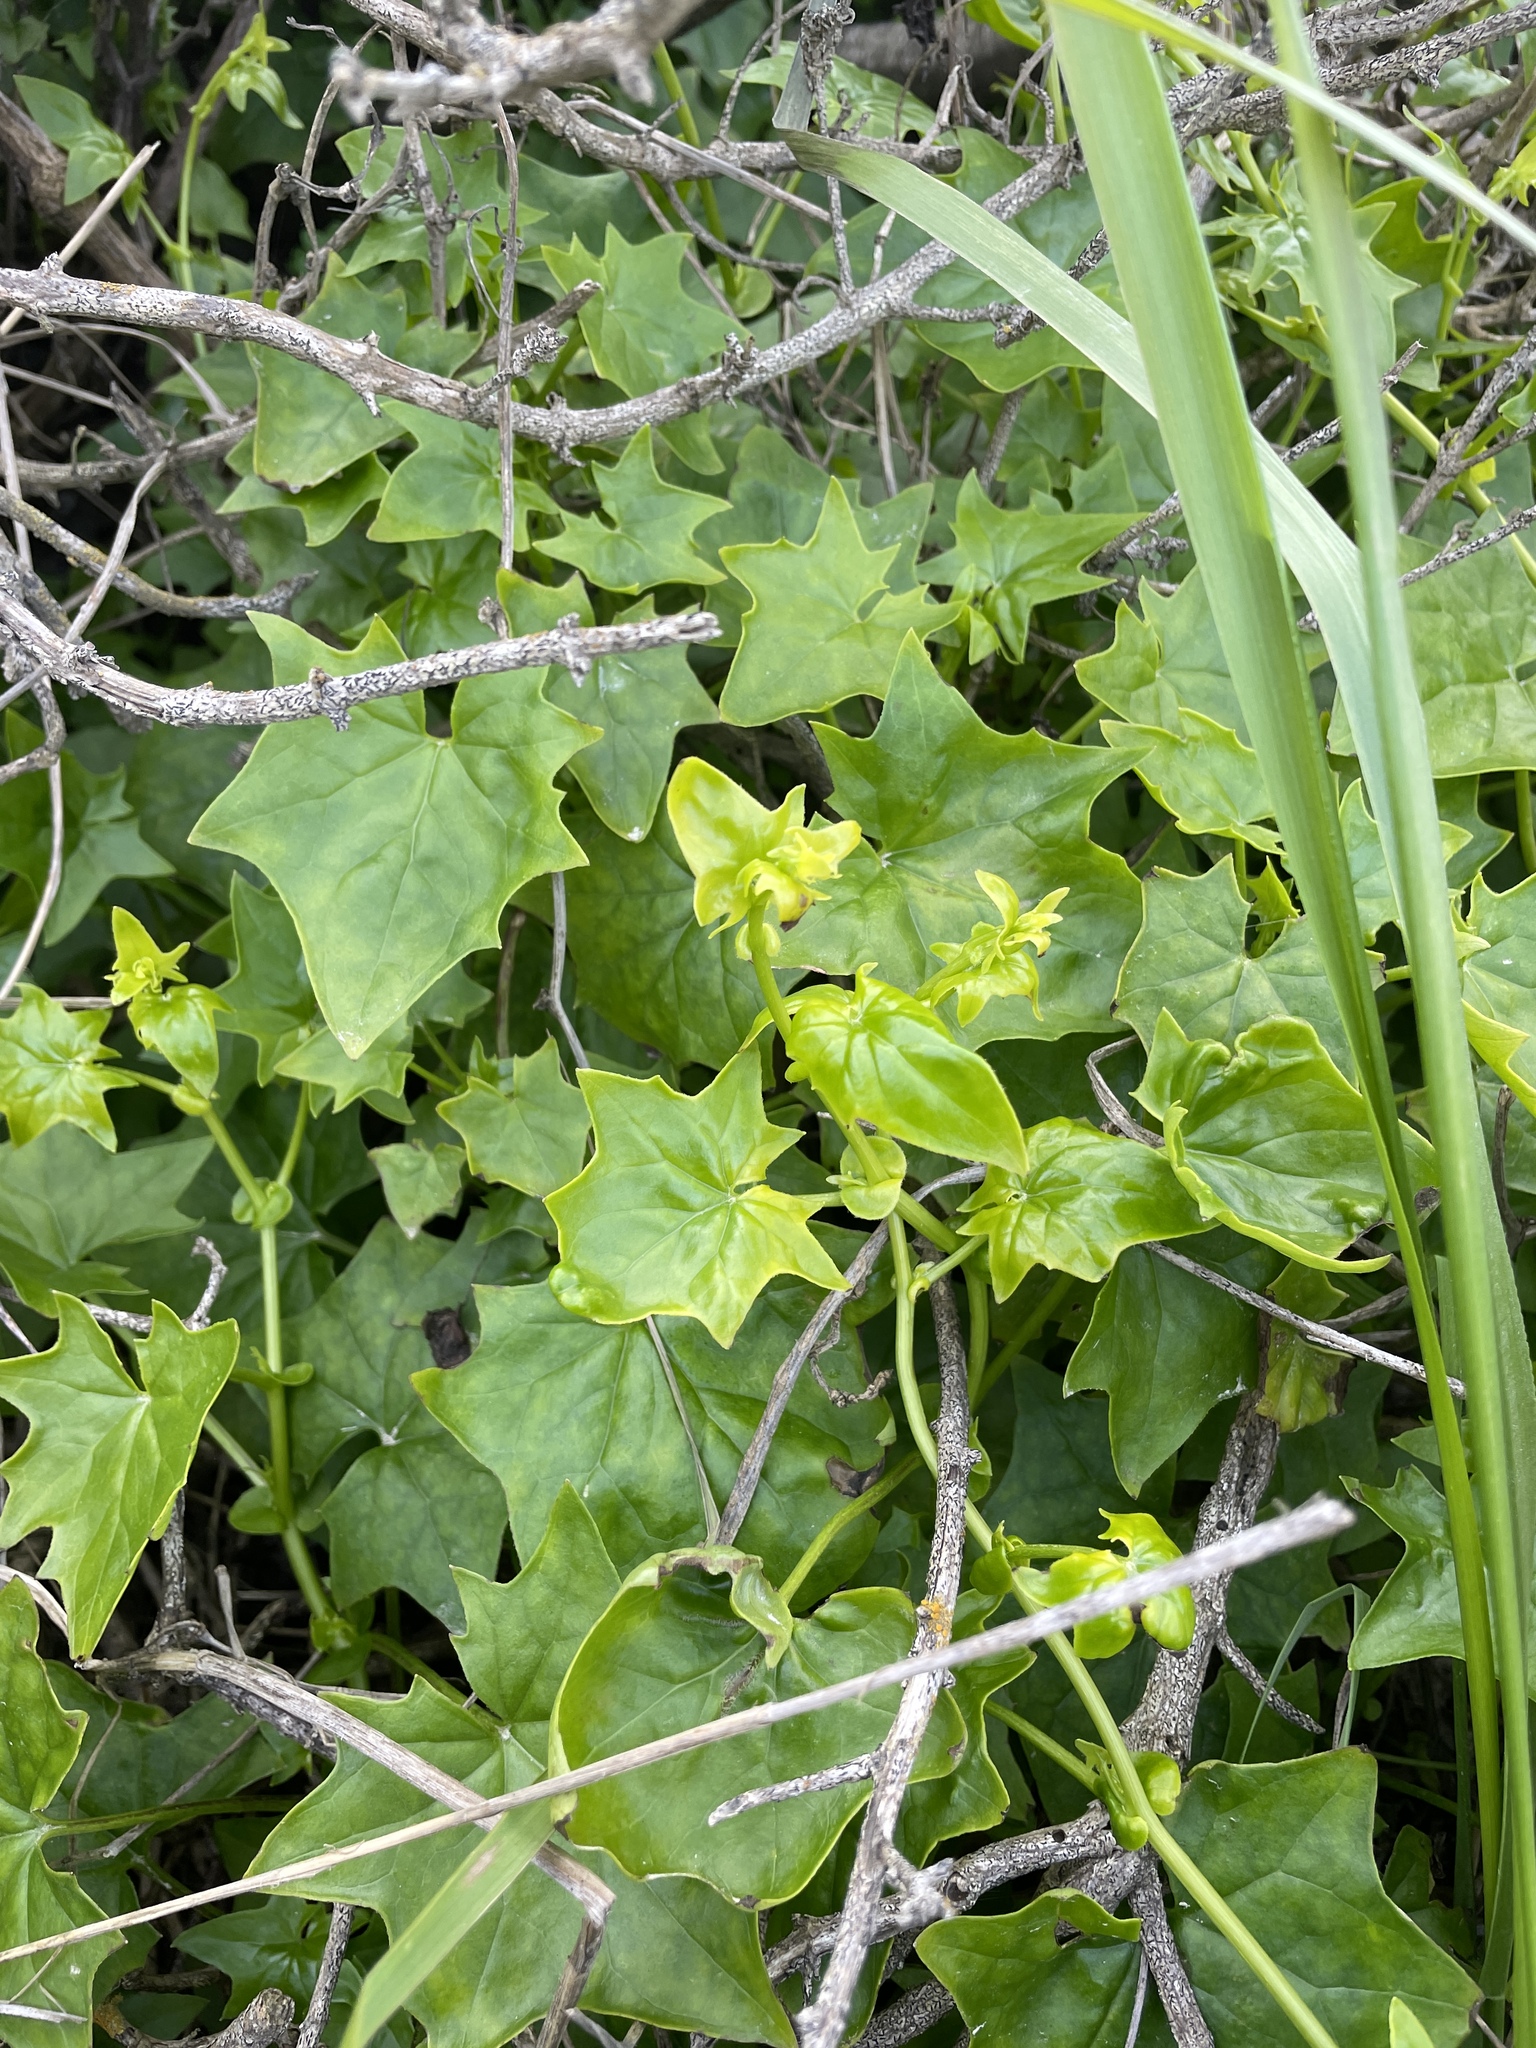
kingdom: Plantae
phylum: Tracheophyta
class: Magnoliopsida
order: Asterales
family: Asteraceae
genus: Delairea
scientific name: Delairea odorata
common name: Cape-ivy
